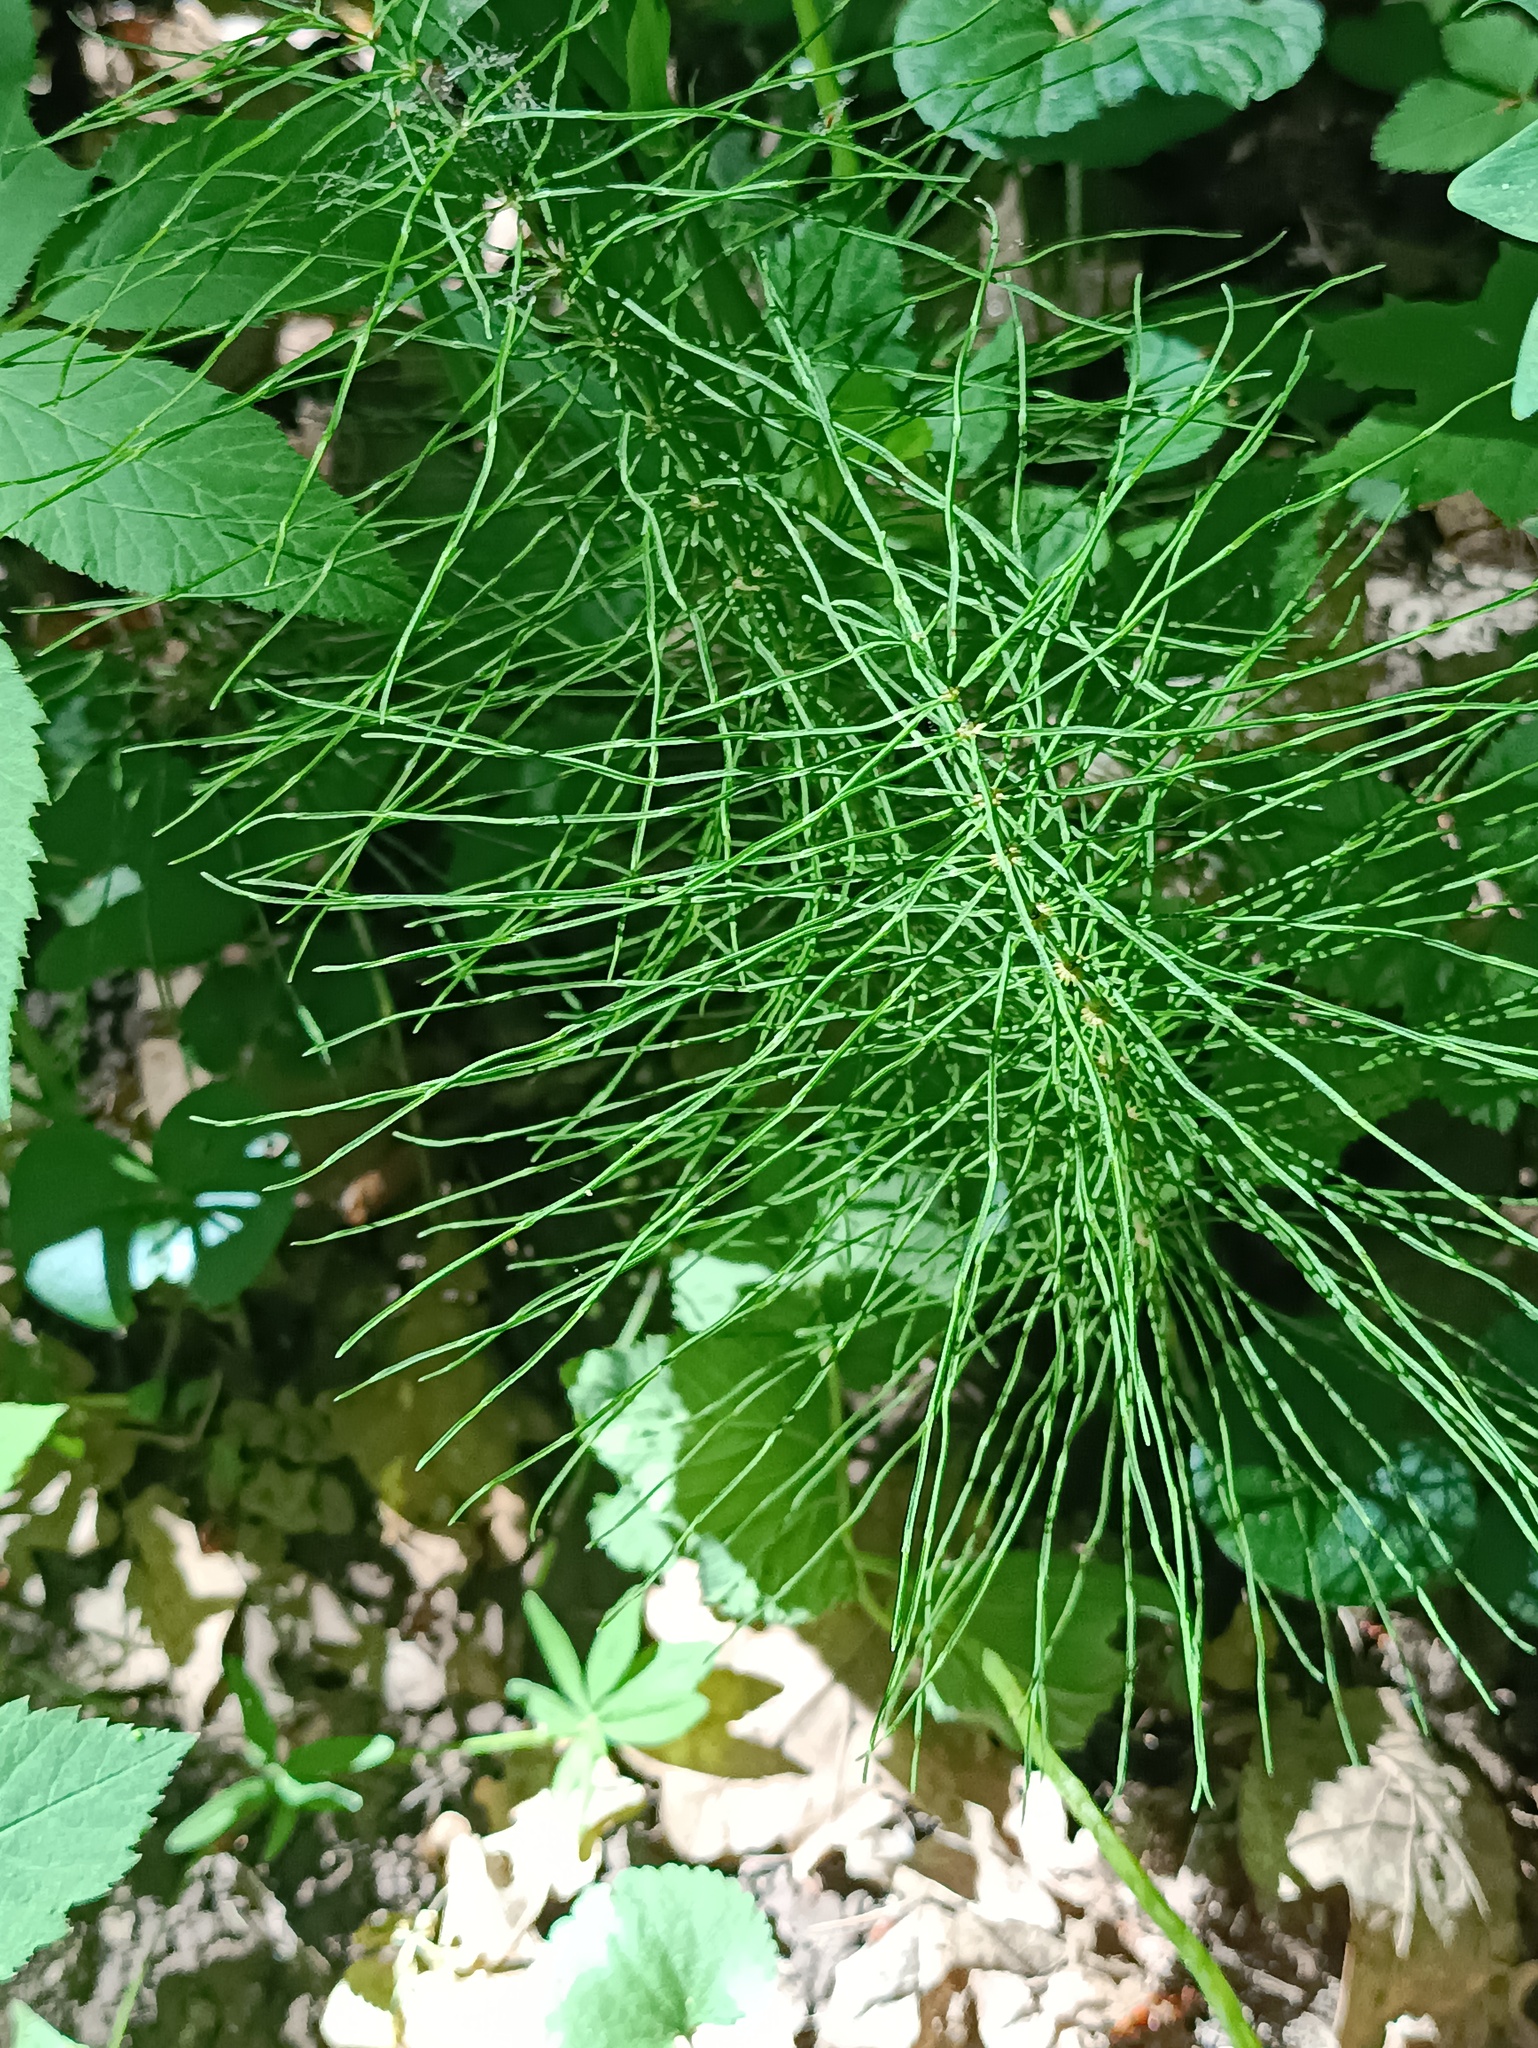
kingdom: Plantae
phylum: Tracheophyta
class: Polypodiopsida
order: Equisetales
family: Equisetaceae
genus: Equisetum
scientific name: Equisetum pratense
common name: Meadow horsetail
